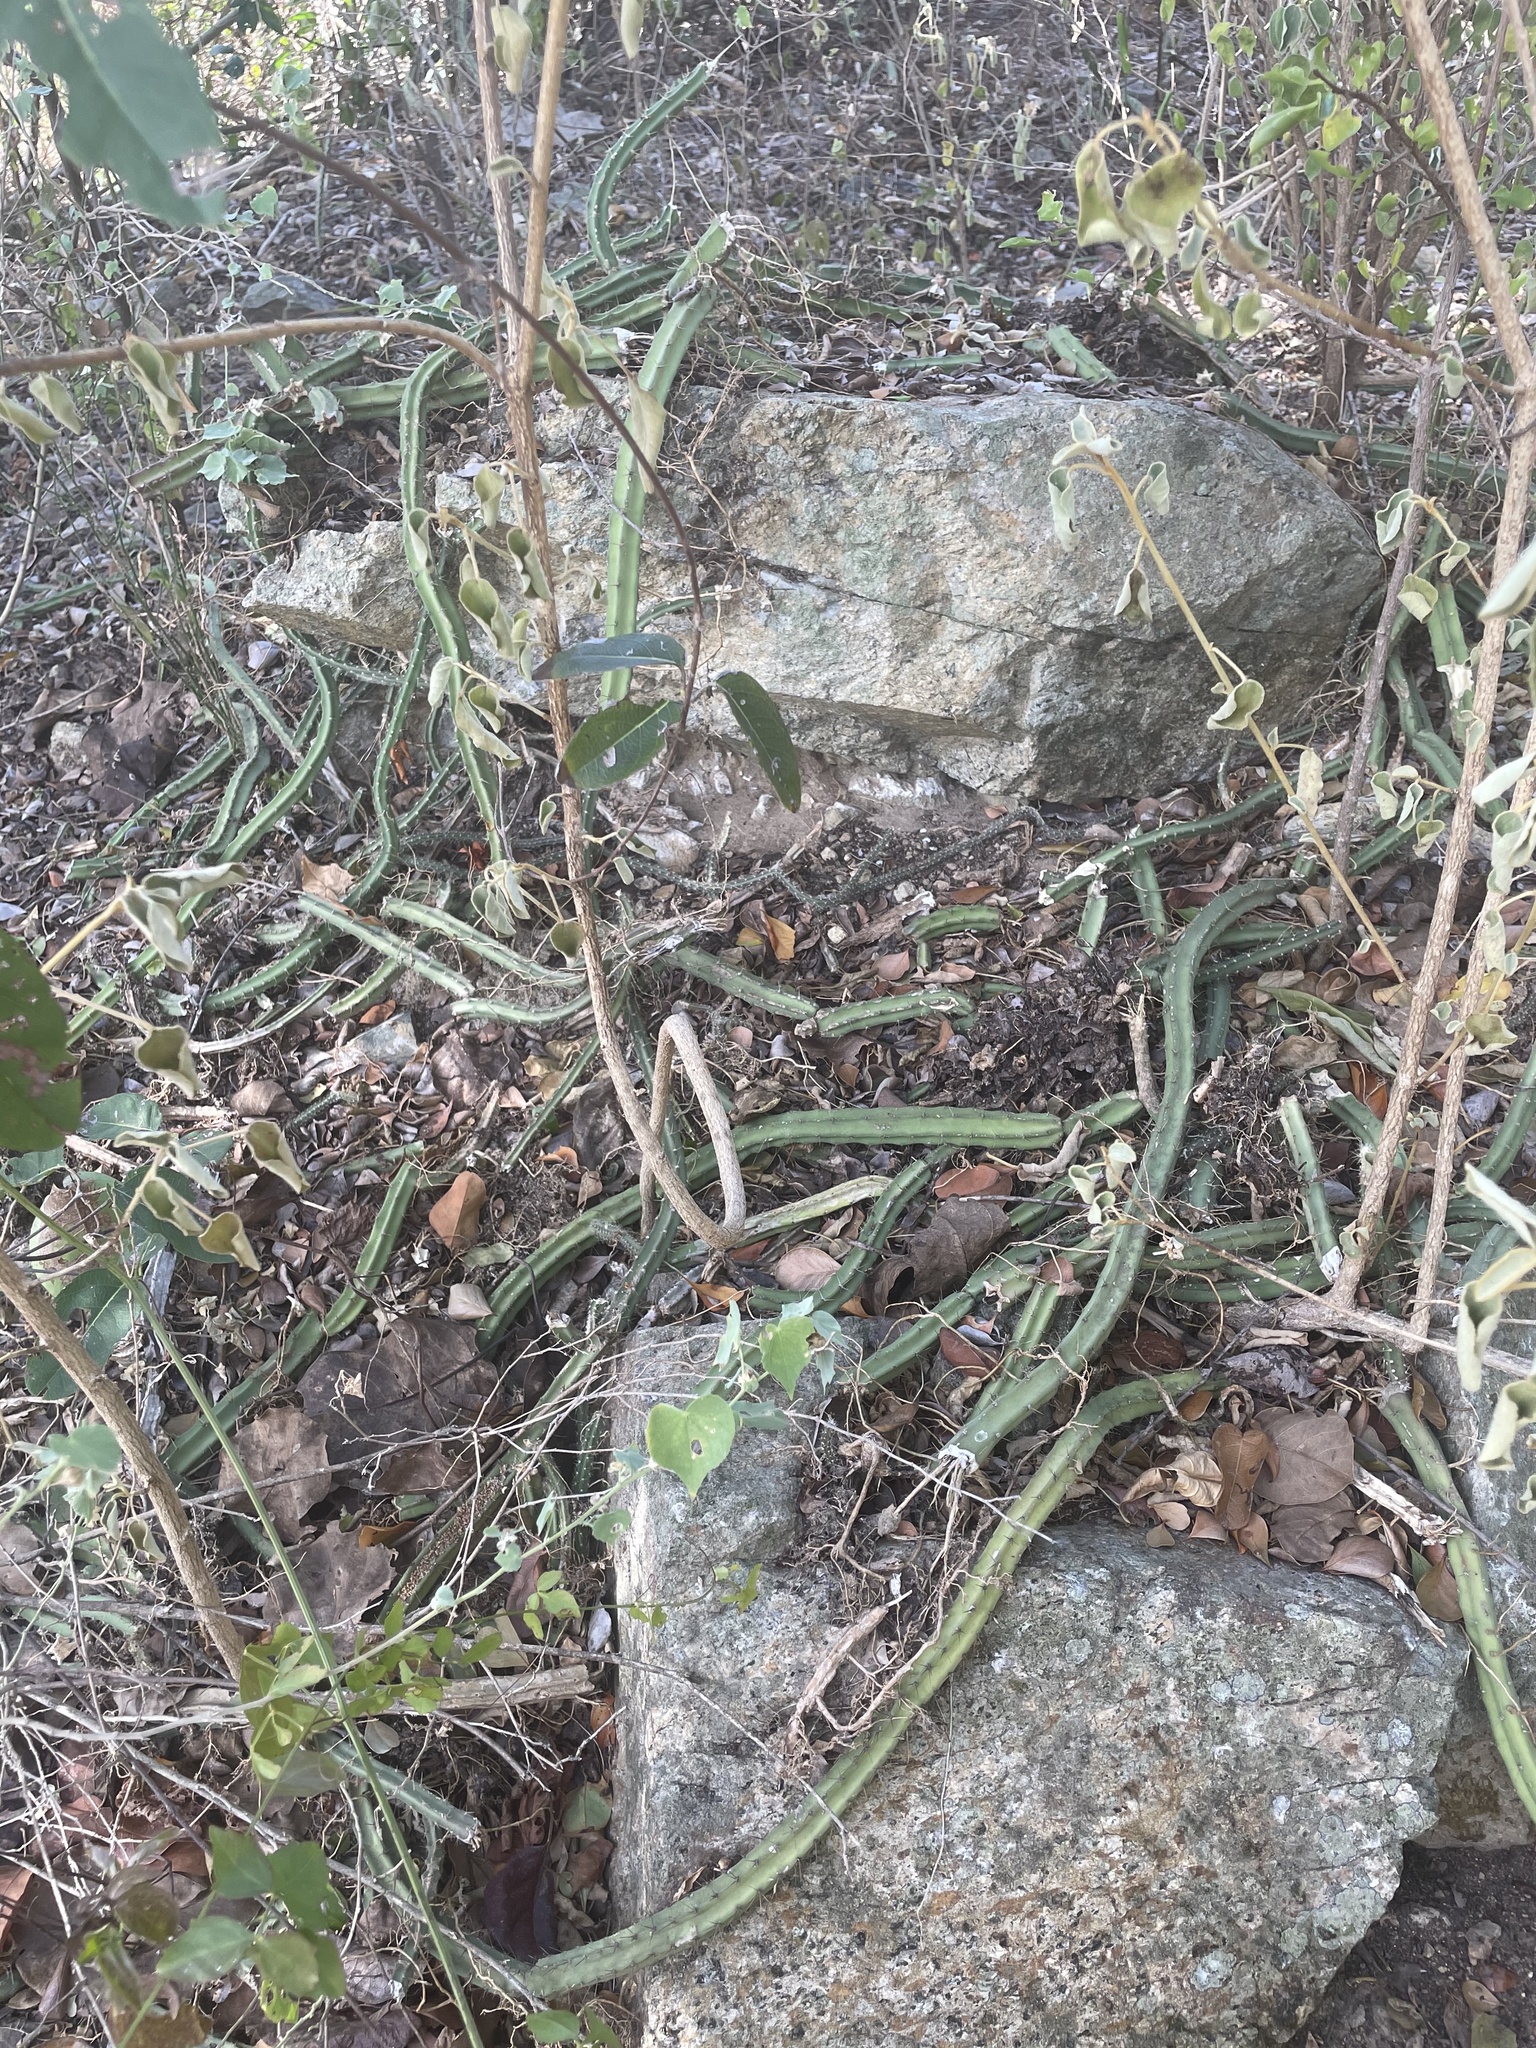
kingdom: Plantae
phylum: Tracheophyta
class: Magnoliopsida
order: Caryophyllales
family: Cactaceae
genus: Selenicereus
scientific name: Selenicereus grandiflorus
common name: Queen of the night
